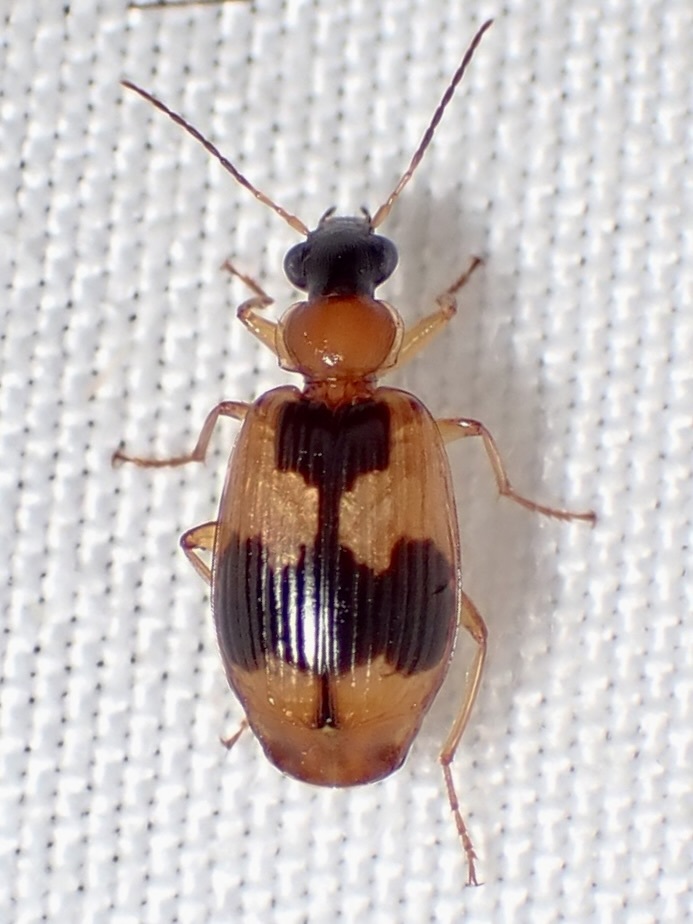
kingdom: Animalia
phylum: Arthropoda
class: Insecta
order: Coleoptera
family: Carabidae
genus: Lebia
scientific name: Lebia analis
